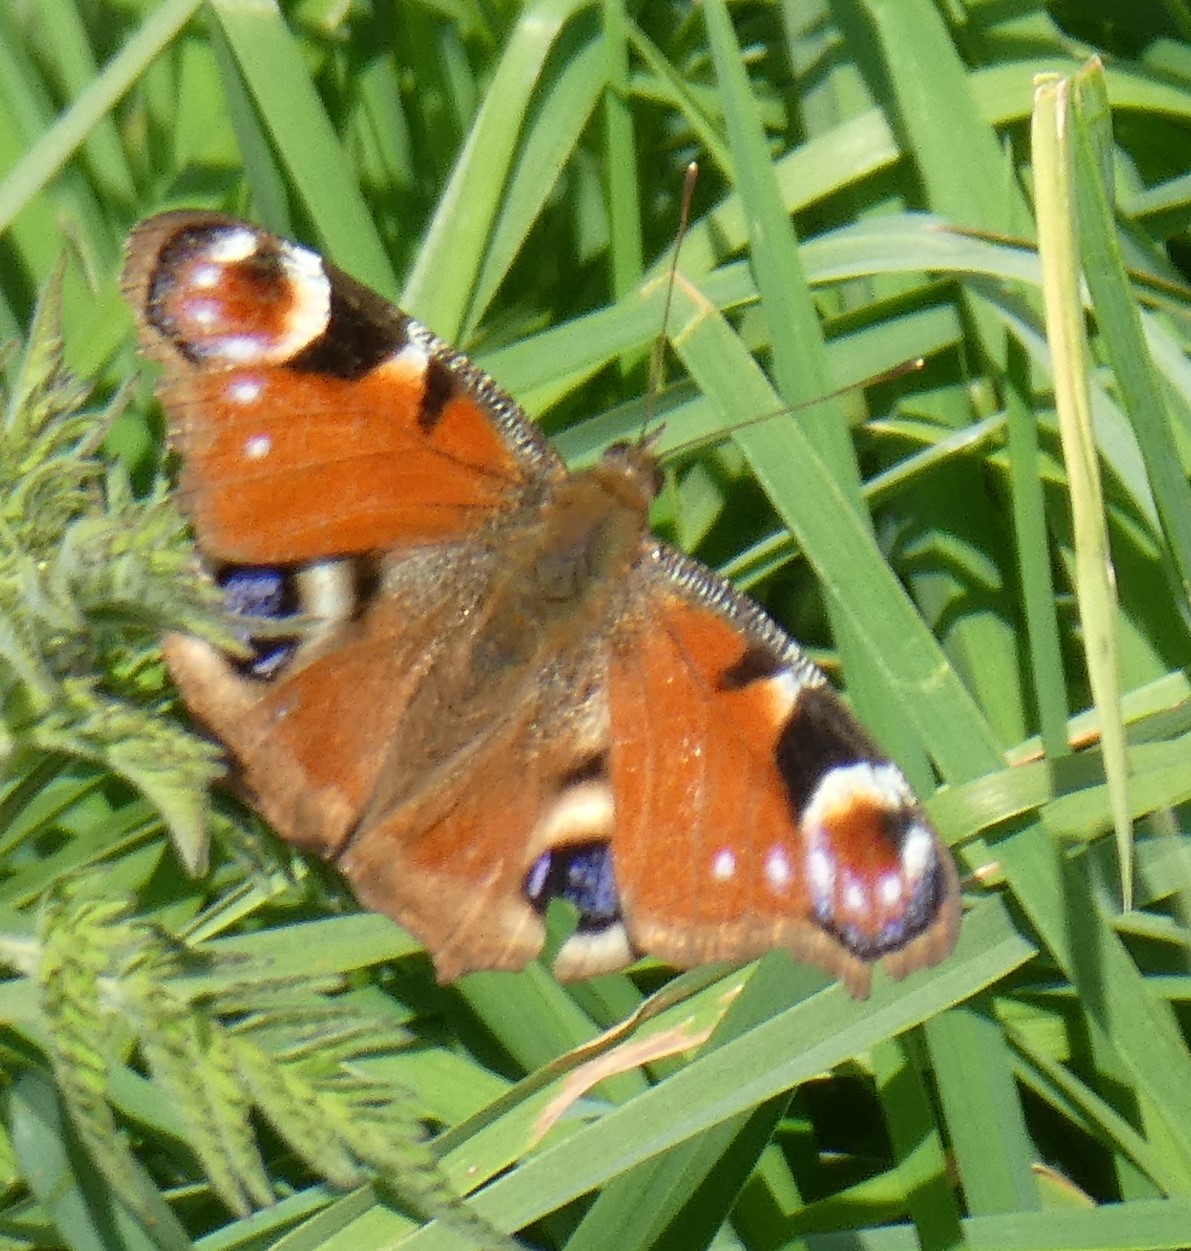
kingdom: Animalia
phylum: Arthropoda
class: Insecta
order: Lepidoptera
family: Nymphalidae
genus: Aglais
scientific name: Aglais io
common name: Peacock
